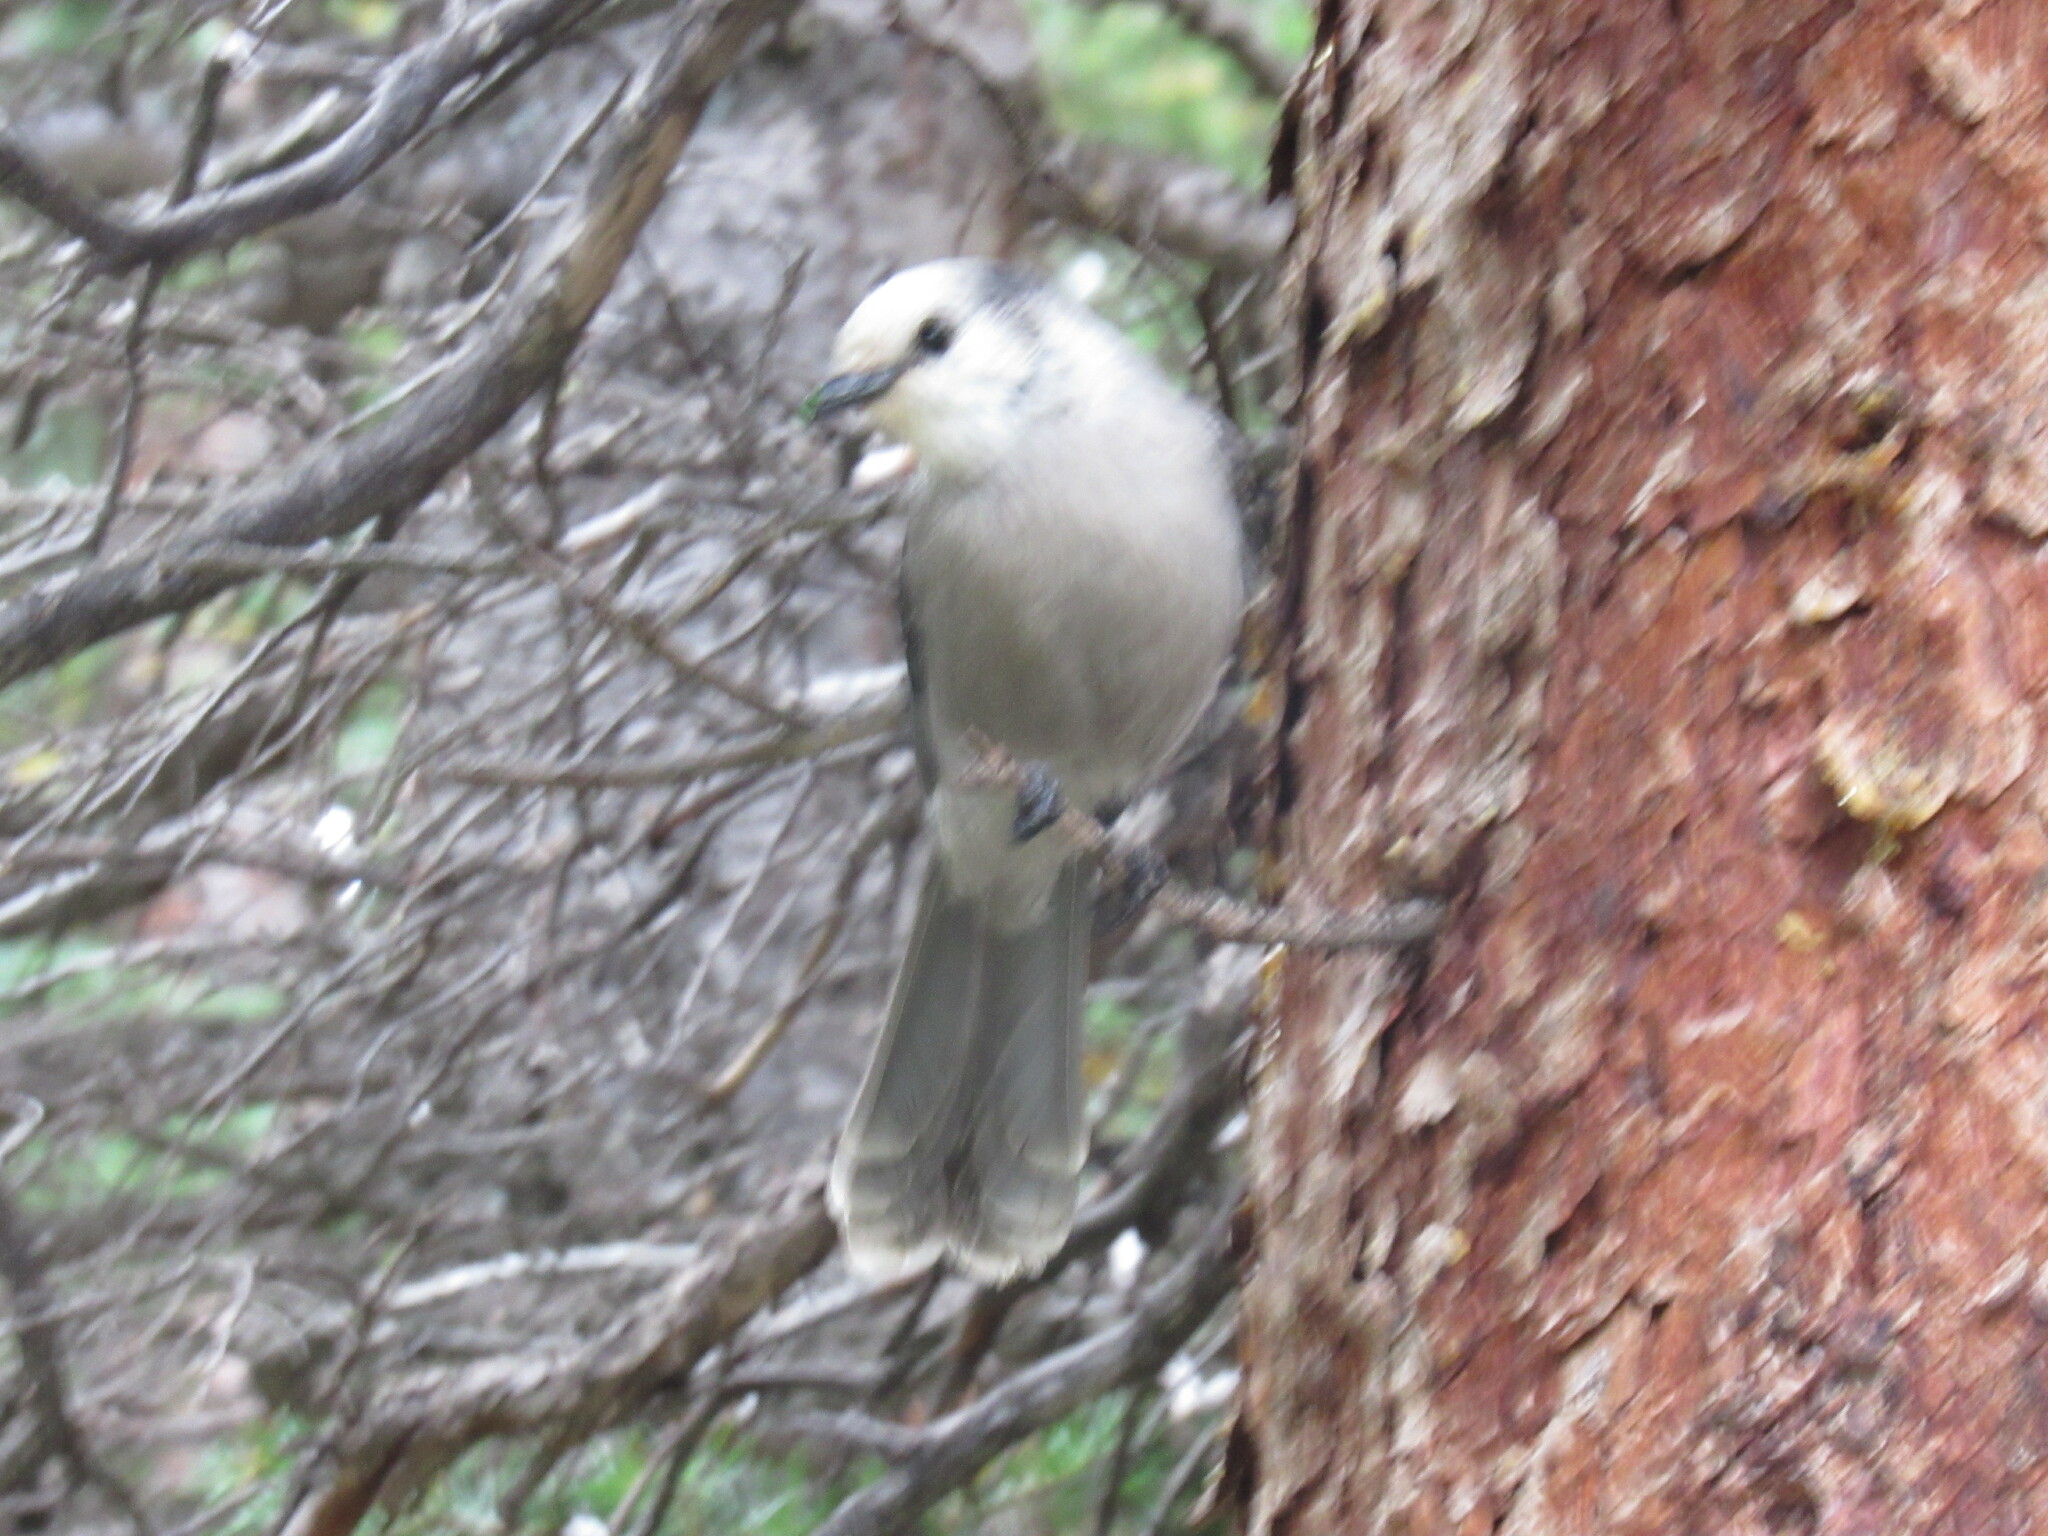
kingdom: Animalia
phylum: Chordata
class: Aves
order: Passeriformes
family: Corvidae
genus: Perisoreus
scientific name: Perisoreus canadensis
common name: Gray jay
